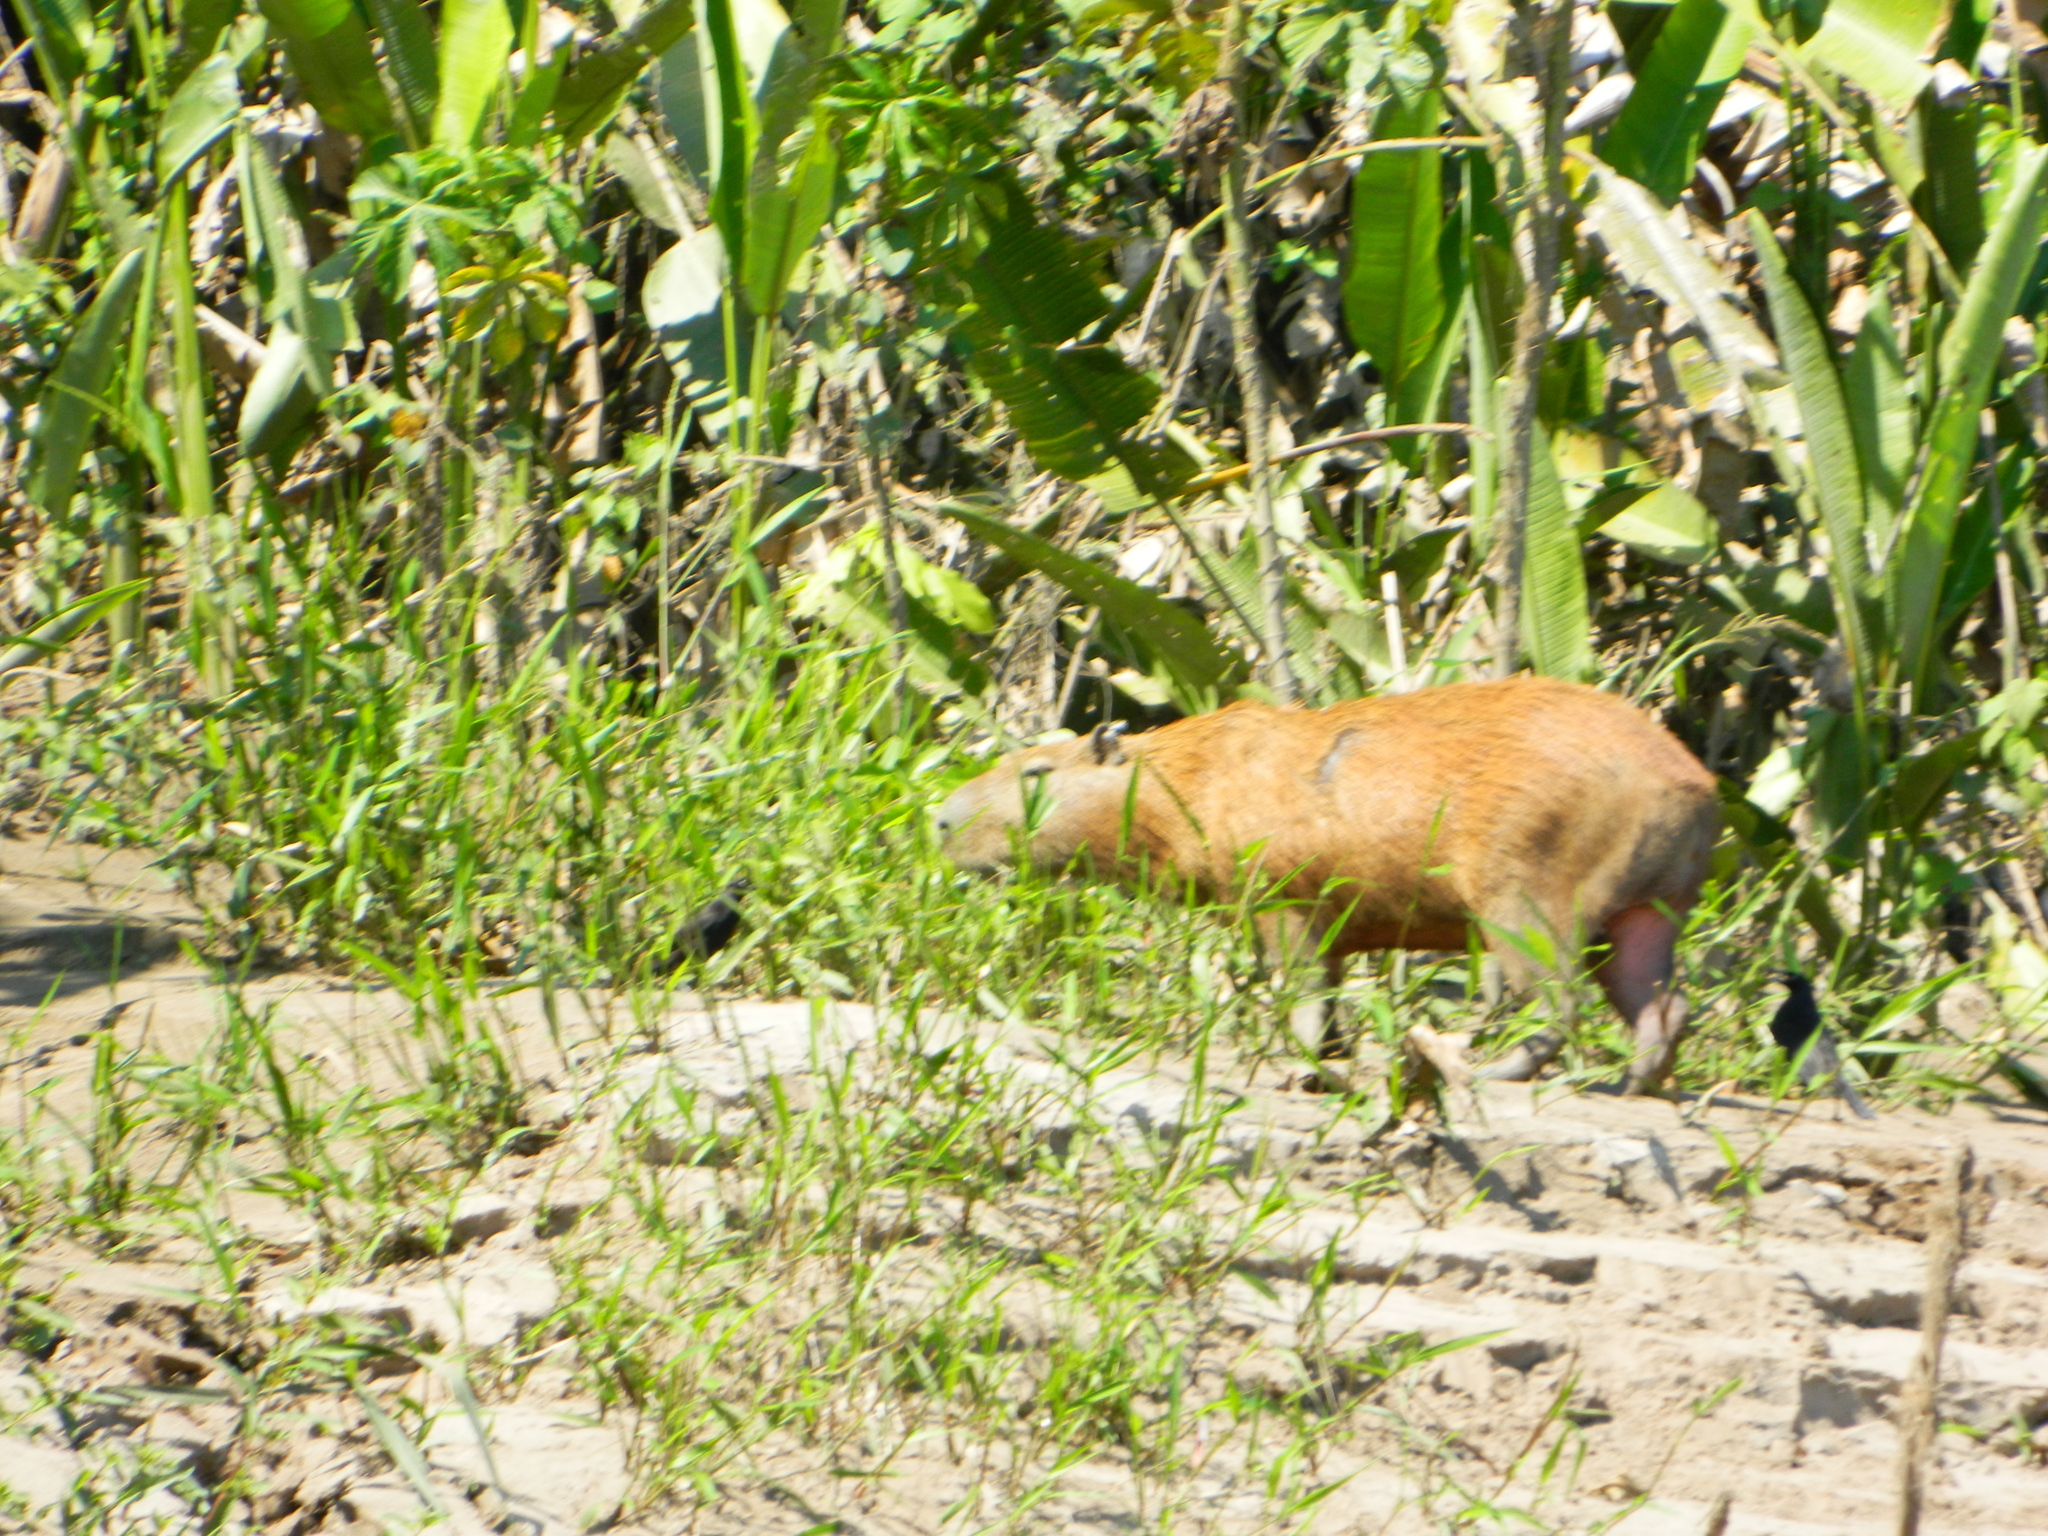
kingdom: Animalia
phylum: Chordata
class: Mammalia
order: Rodentia
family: Caviidae
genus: Hydrochoerus
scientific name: Hydrochoerus hydrochaeris
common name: Capybara
